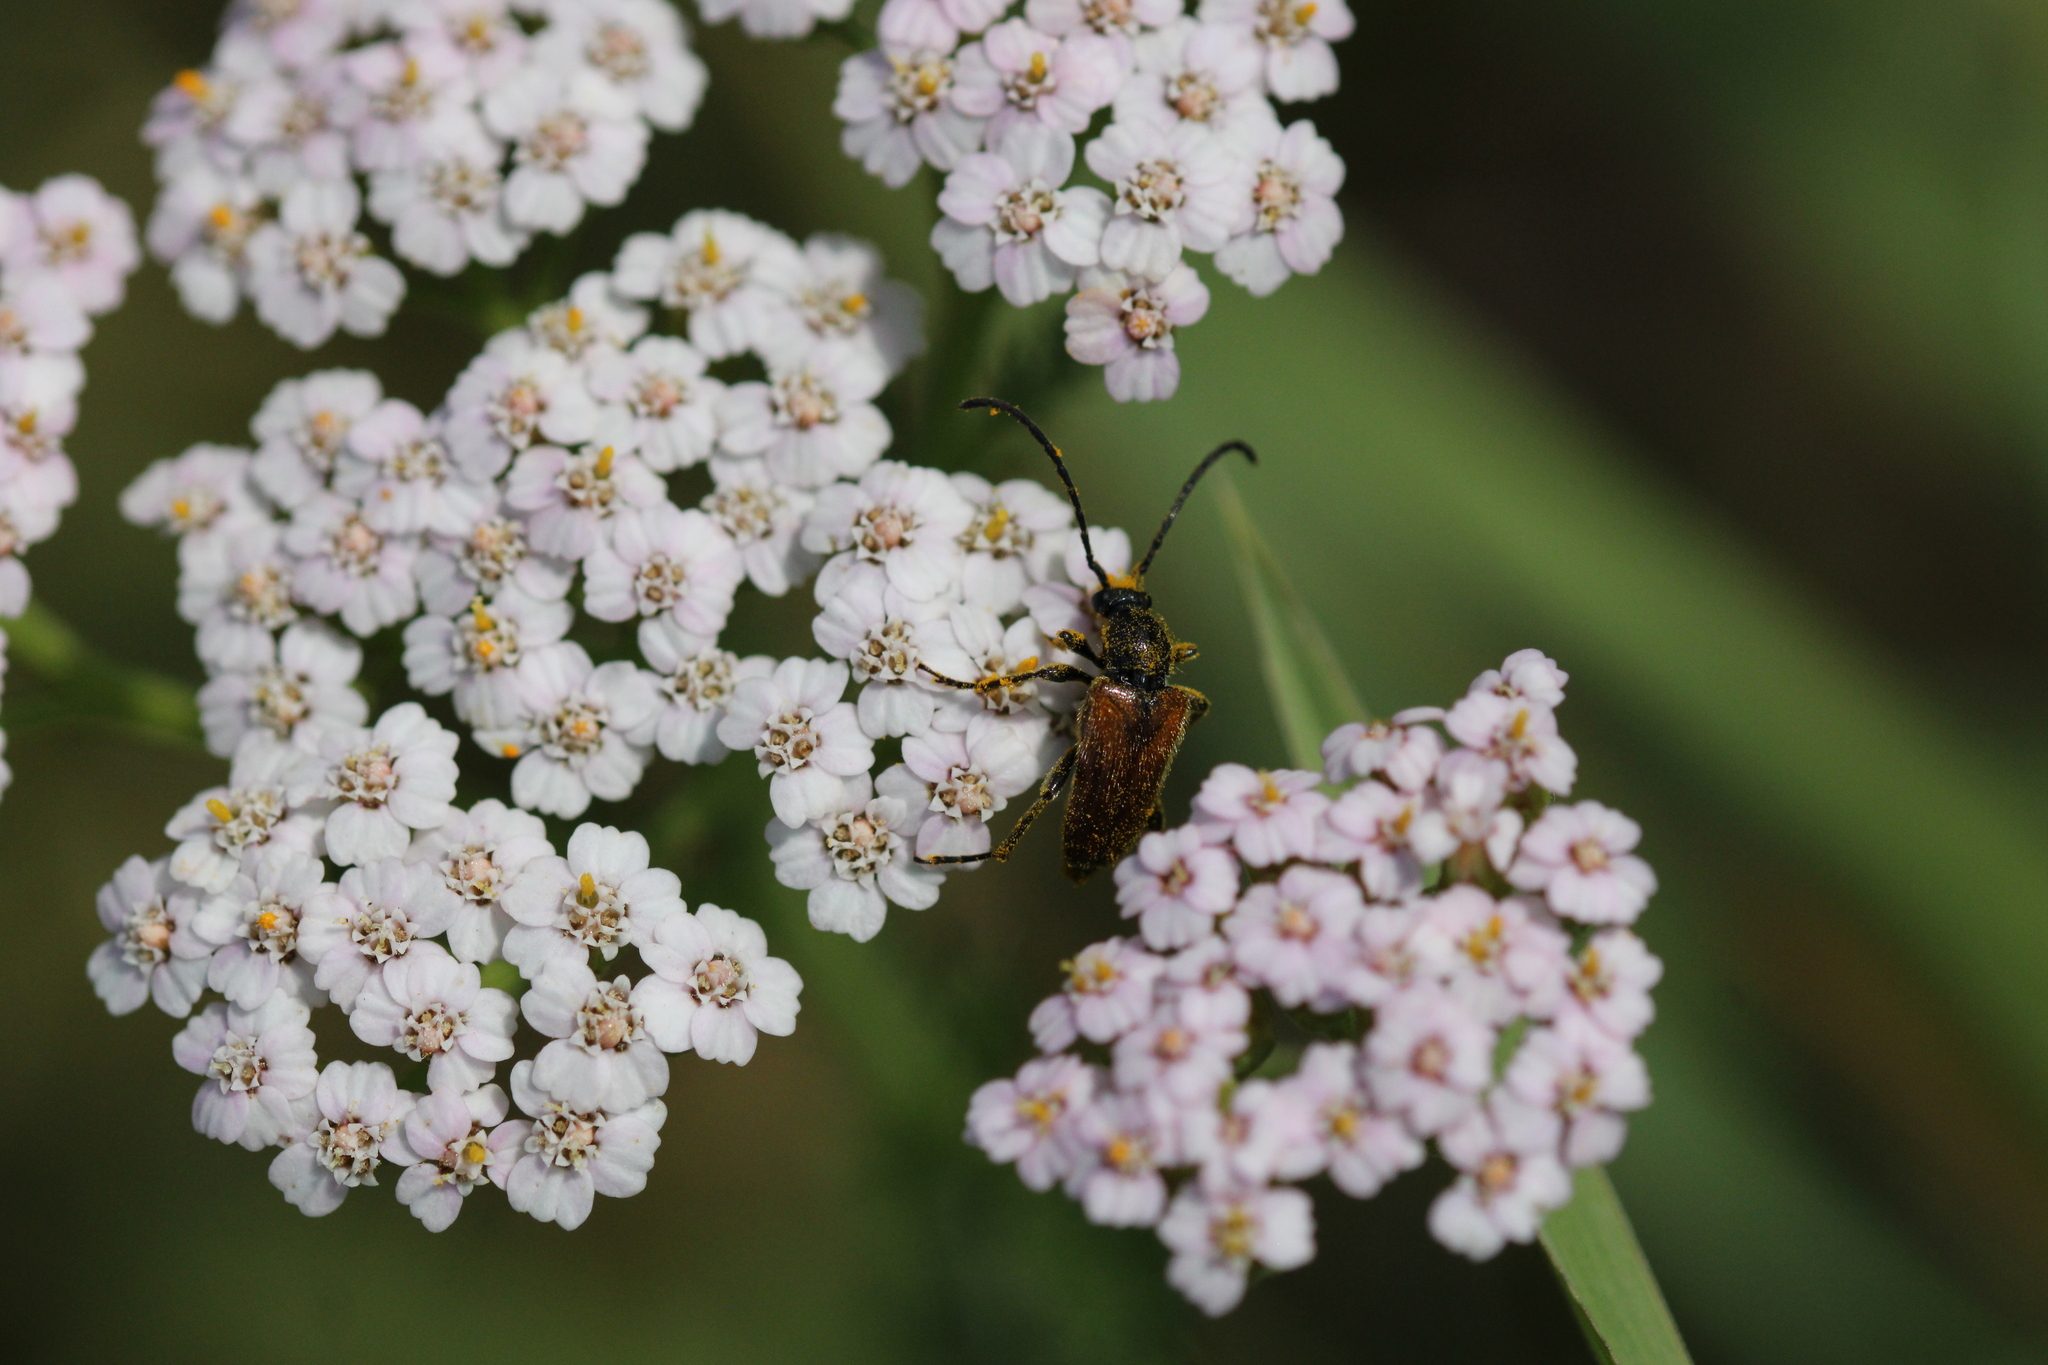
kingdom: Animalia
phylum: Arthropoda
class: Insecta
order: Coleoptera
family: Cerambycidae
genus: Pseudovadonia
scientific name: Pseudovadonia livida
